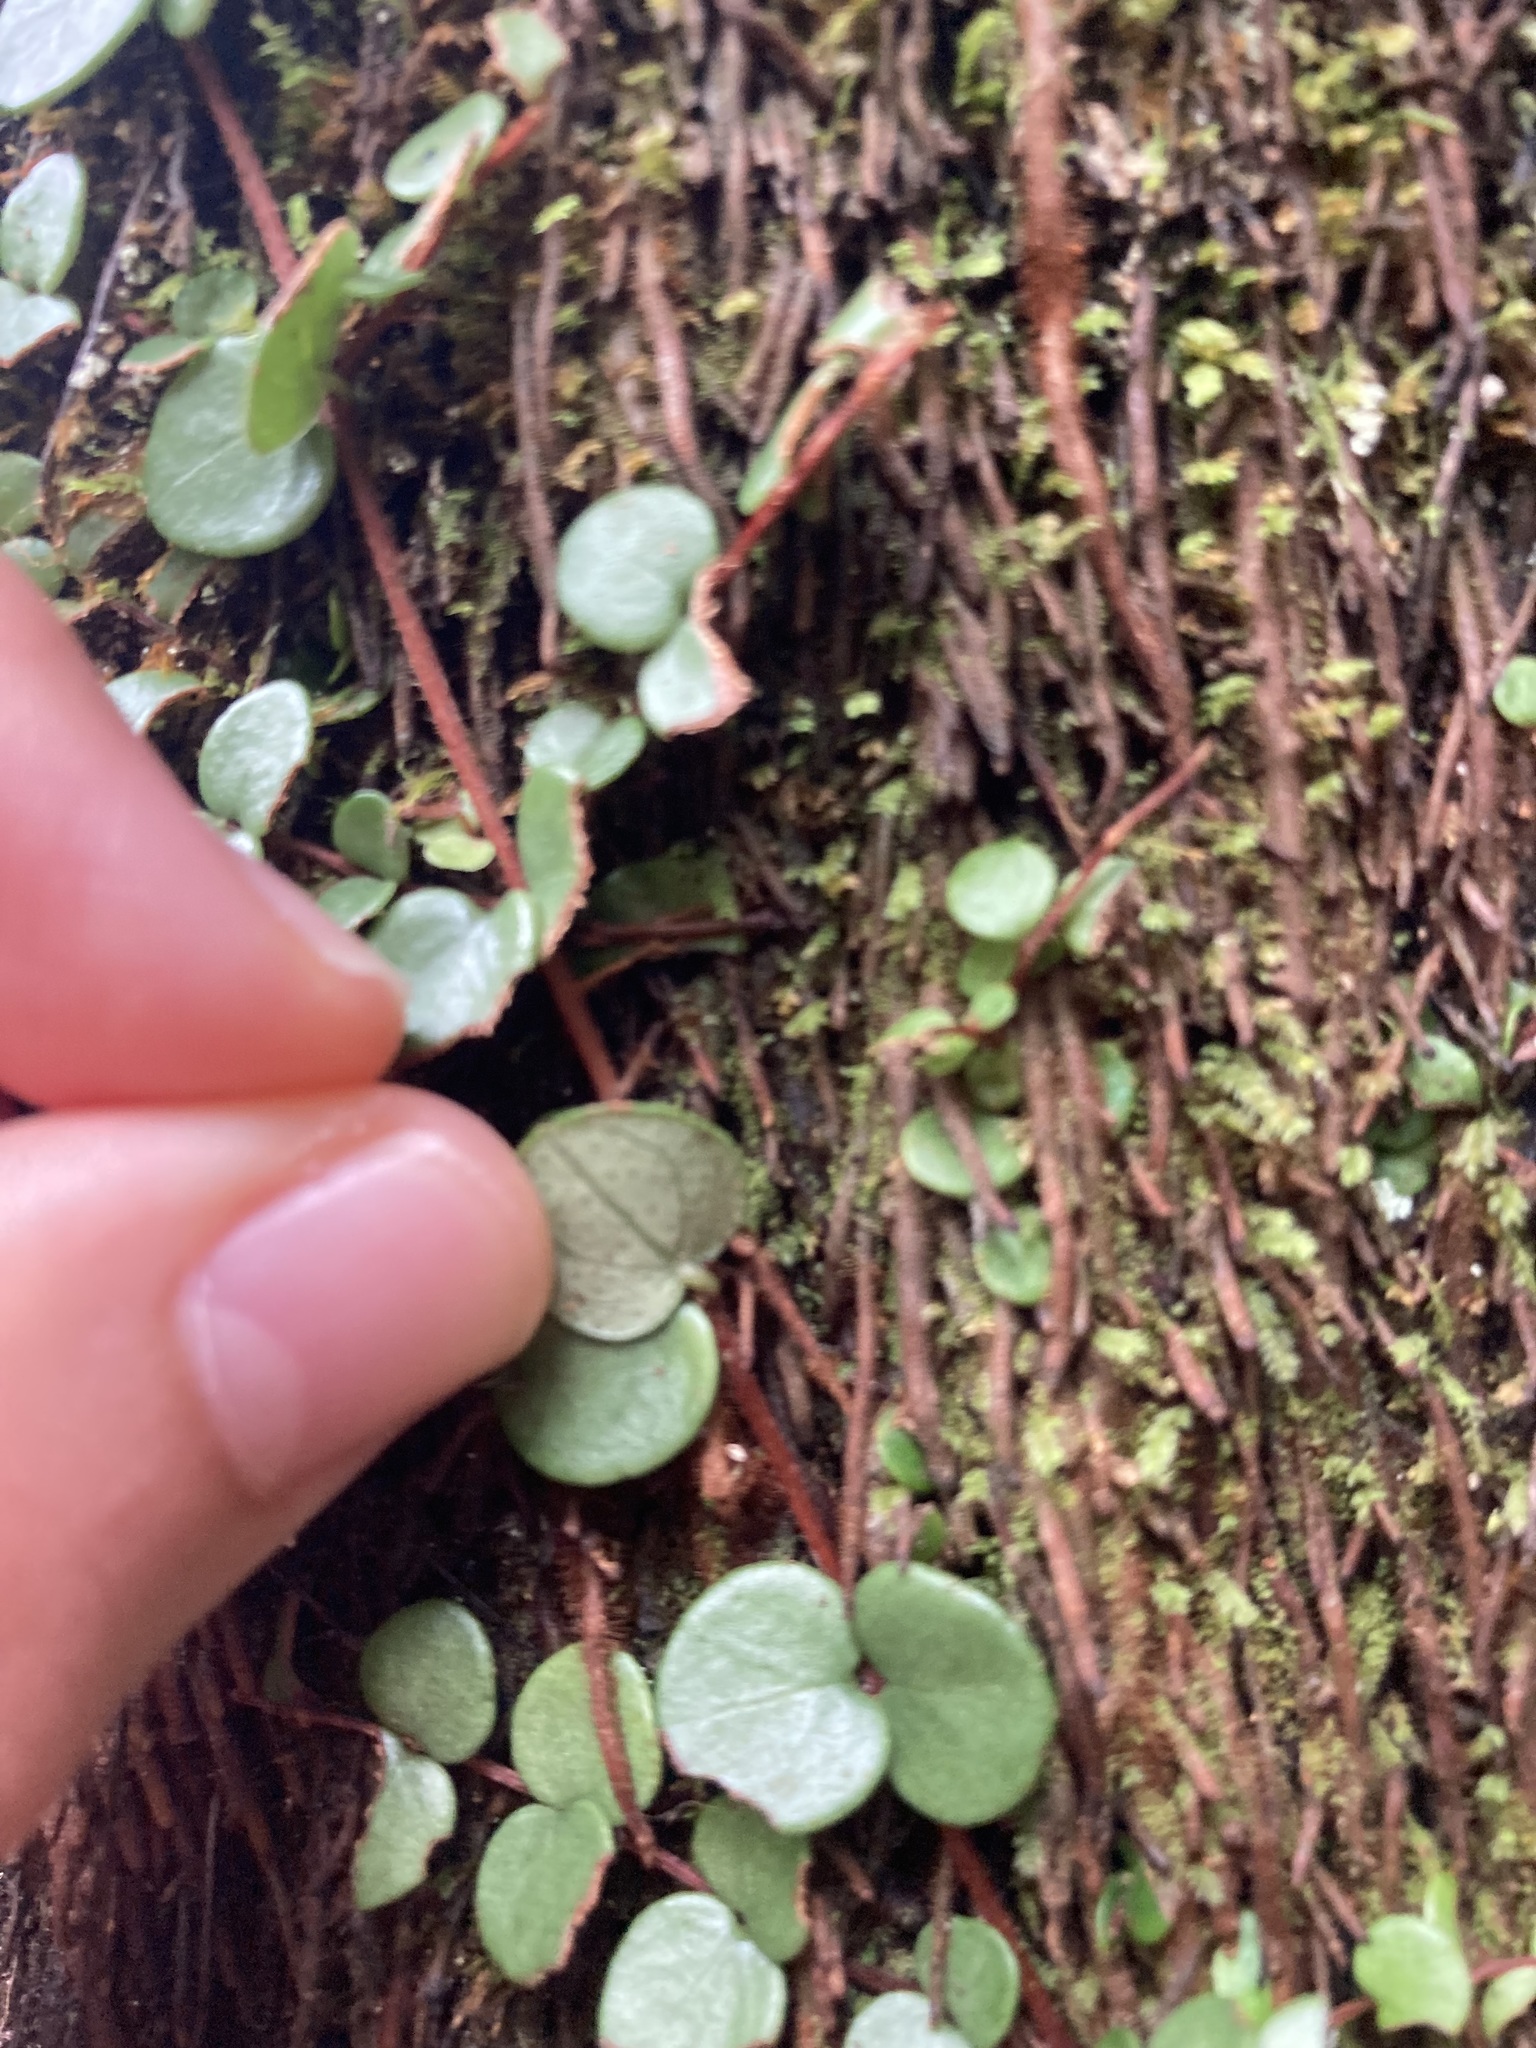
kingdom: Plantae
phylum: Tracheophyta
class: Magnoliopsida
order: Myrtales
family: Myrtaceae
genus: Metrosideros
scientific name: Metrosideros perforata
